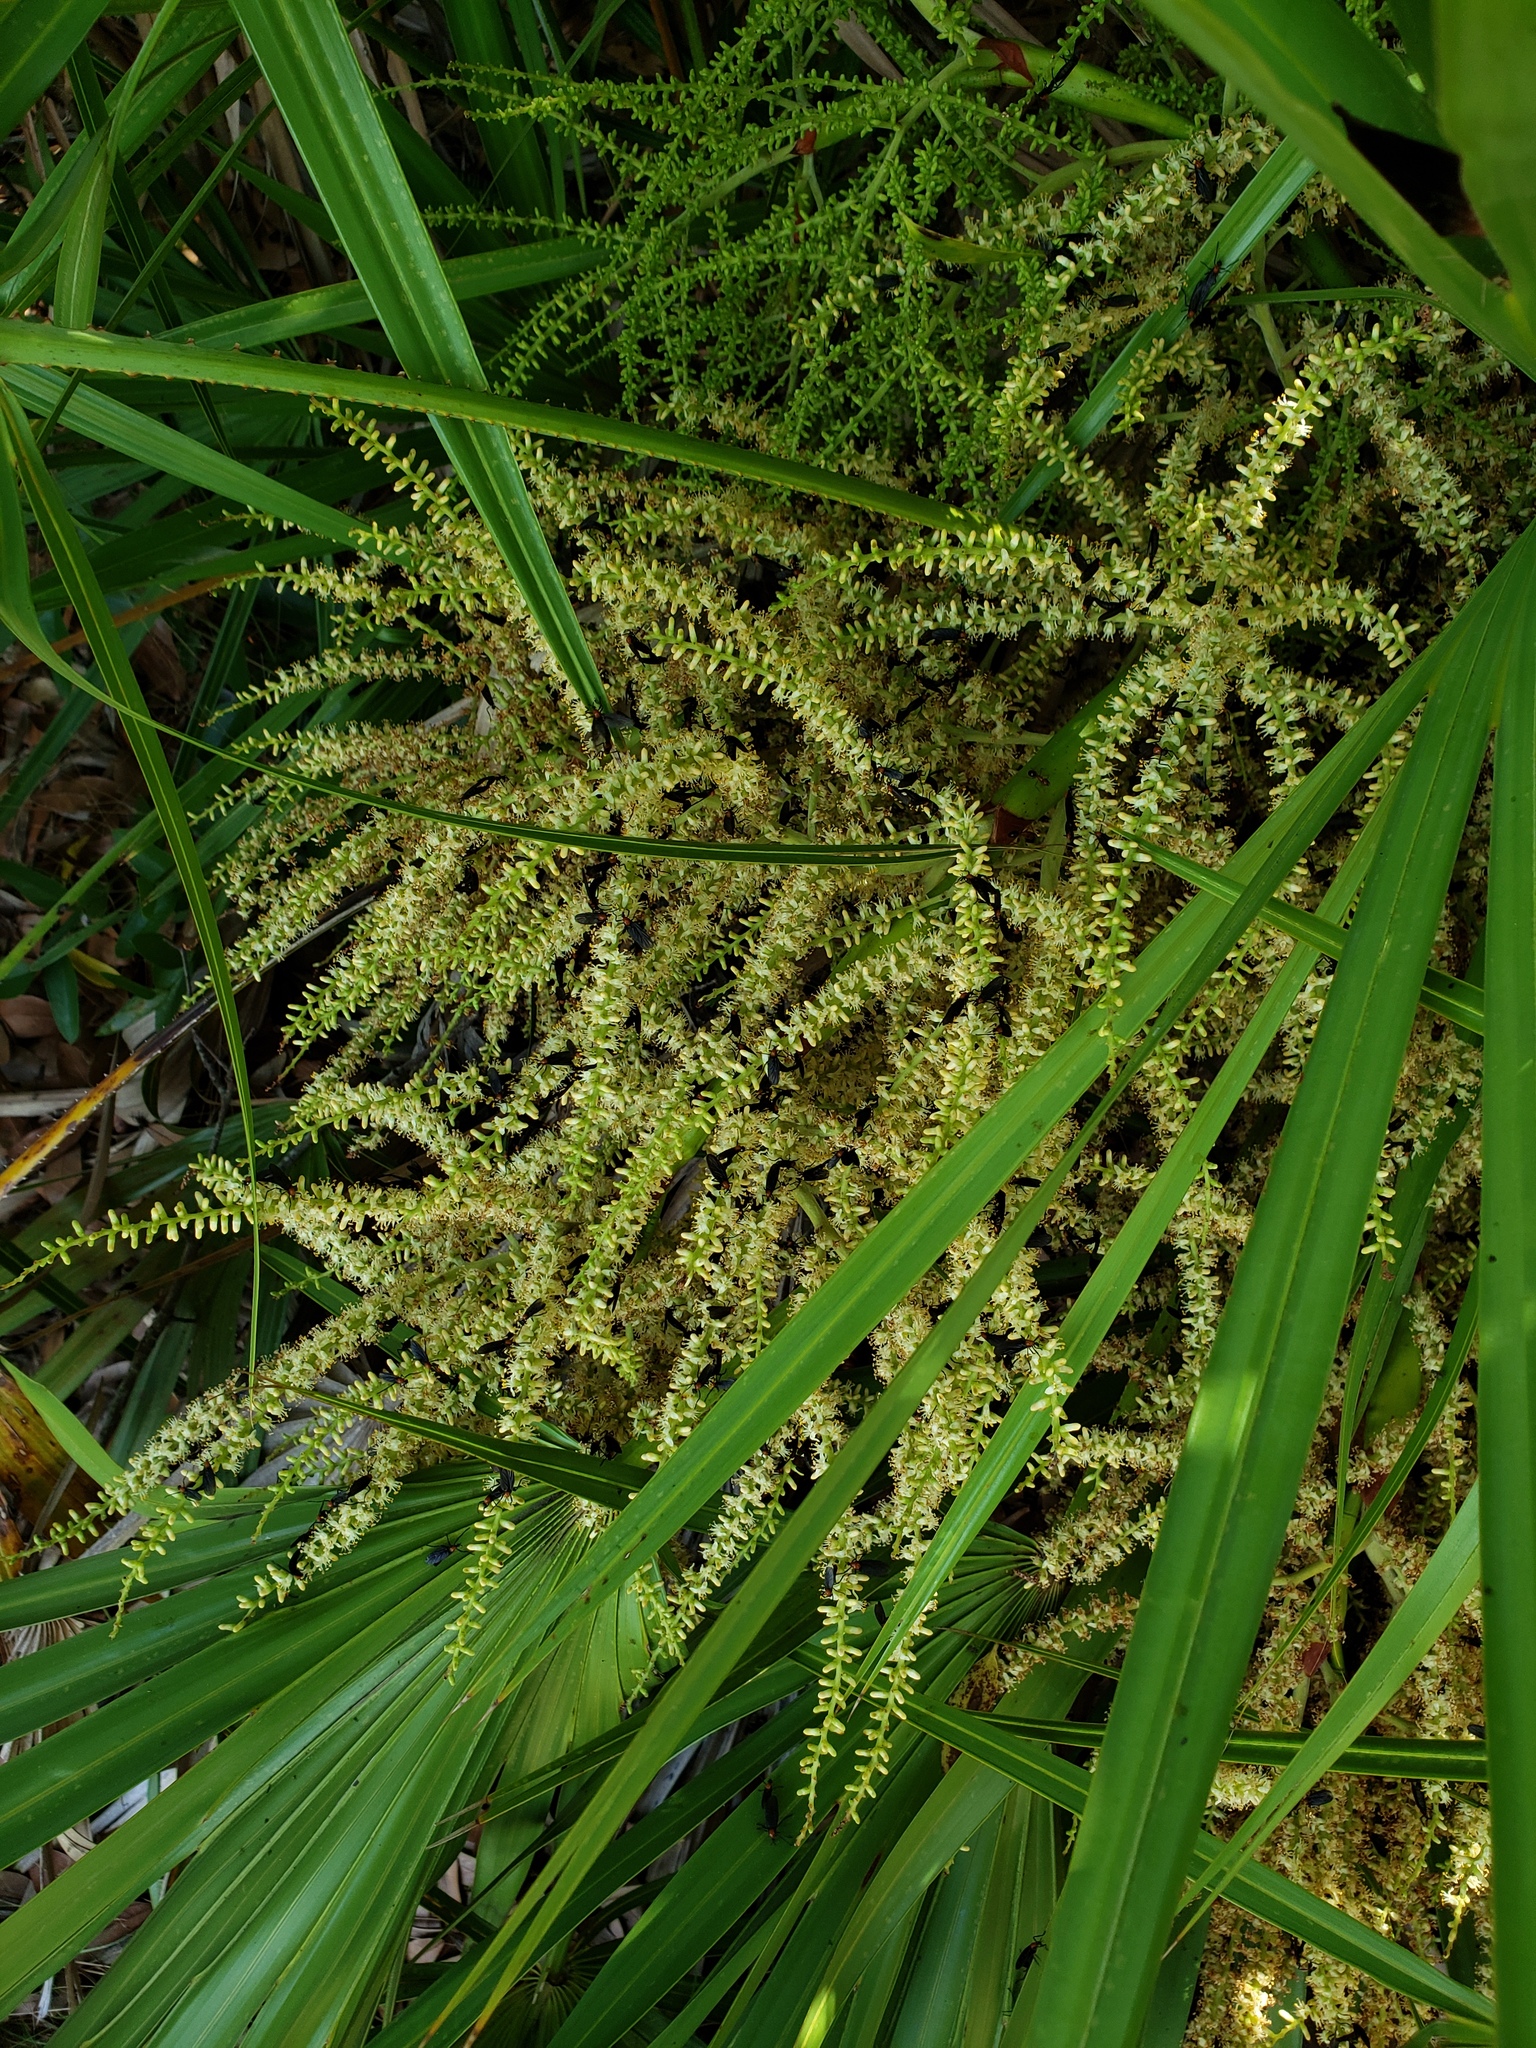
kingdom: Animalia
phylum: Arthropoda
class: Insecta
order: Diptera
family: Bibionidae
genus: Plecia
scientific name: Plecia nearctica
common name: March fly
